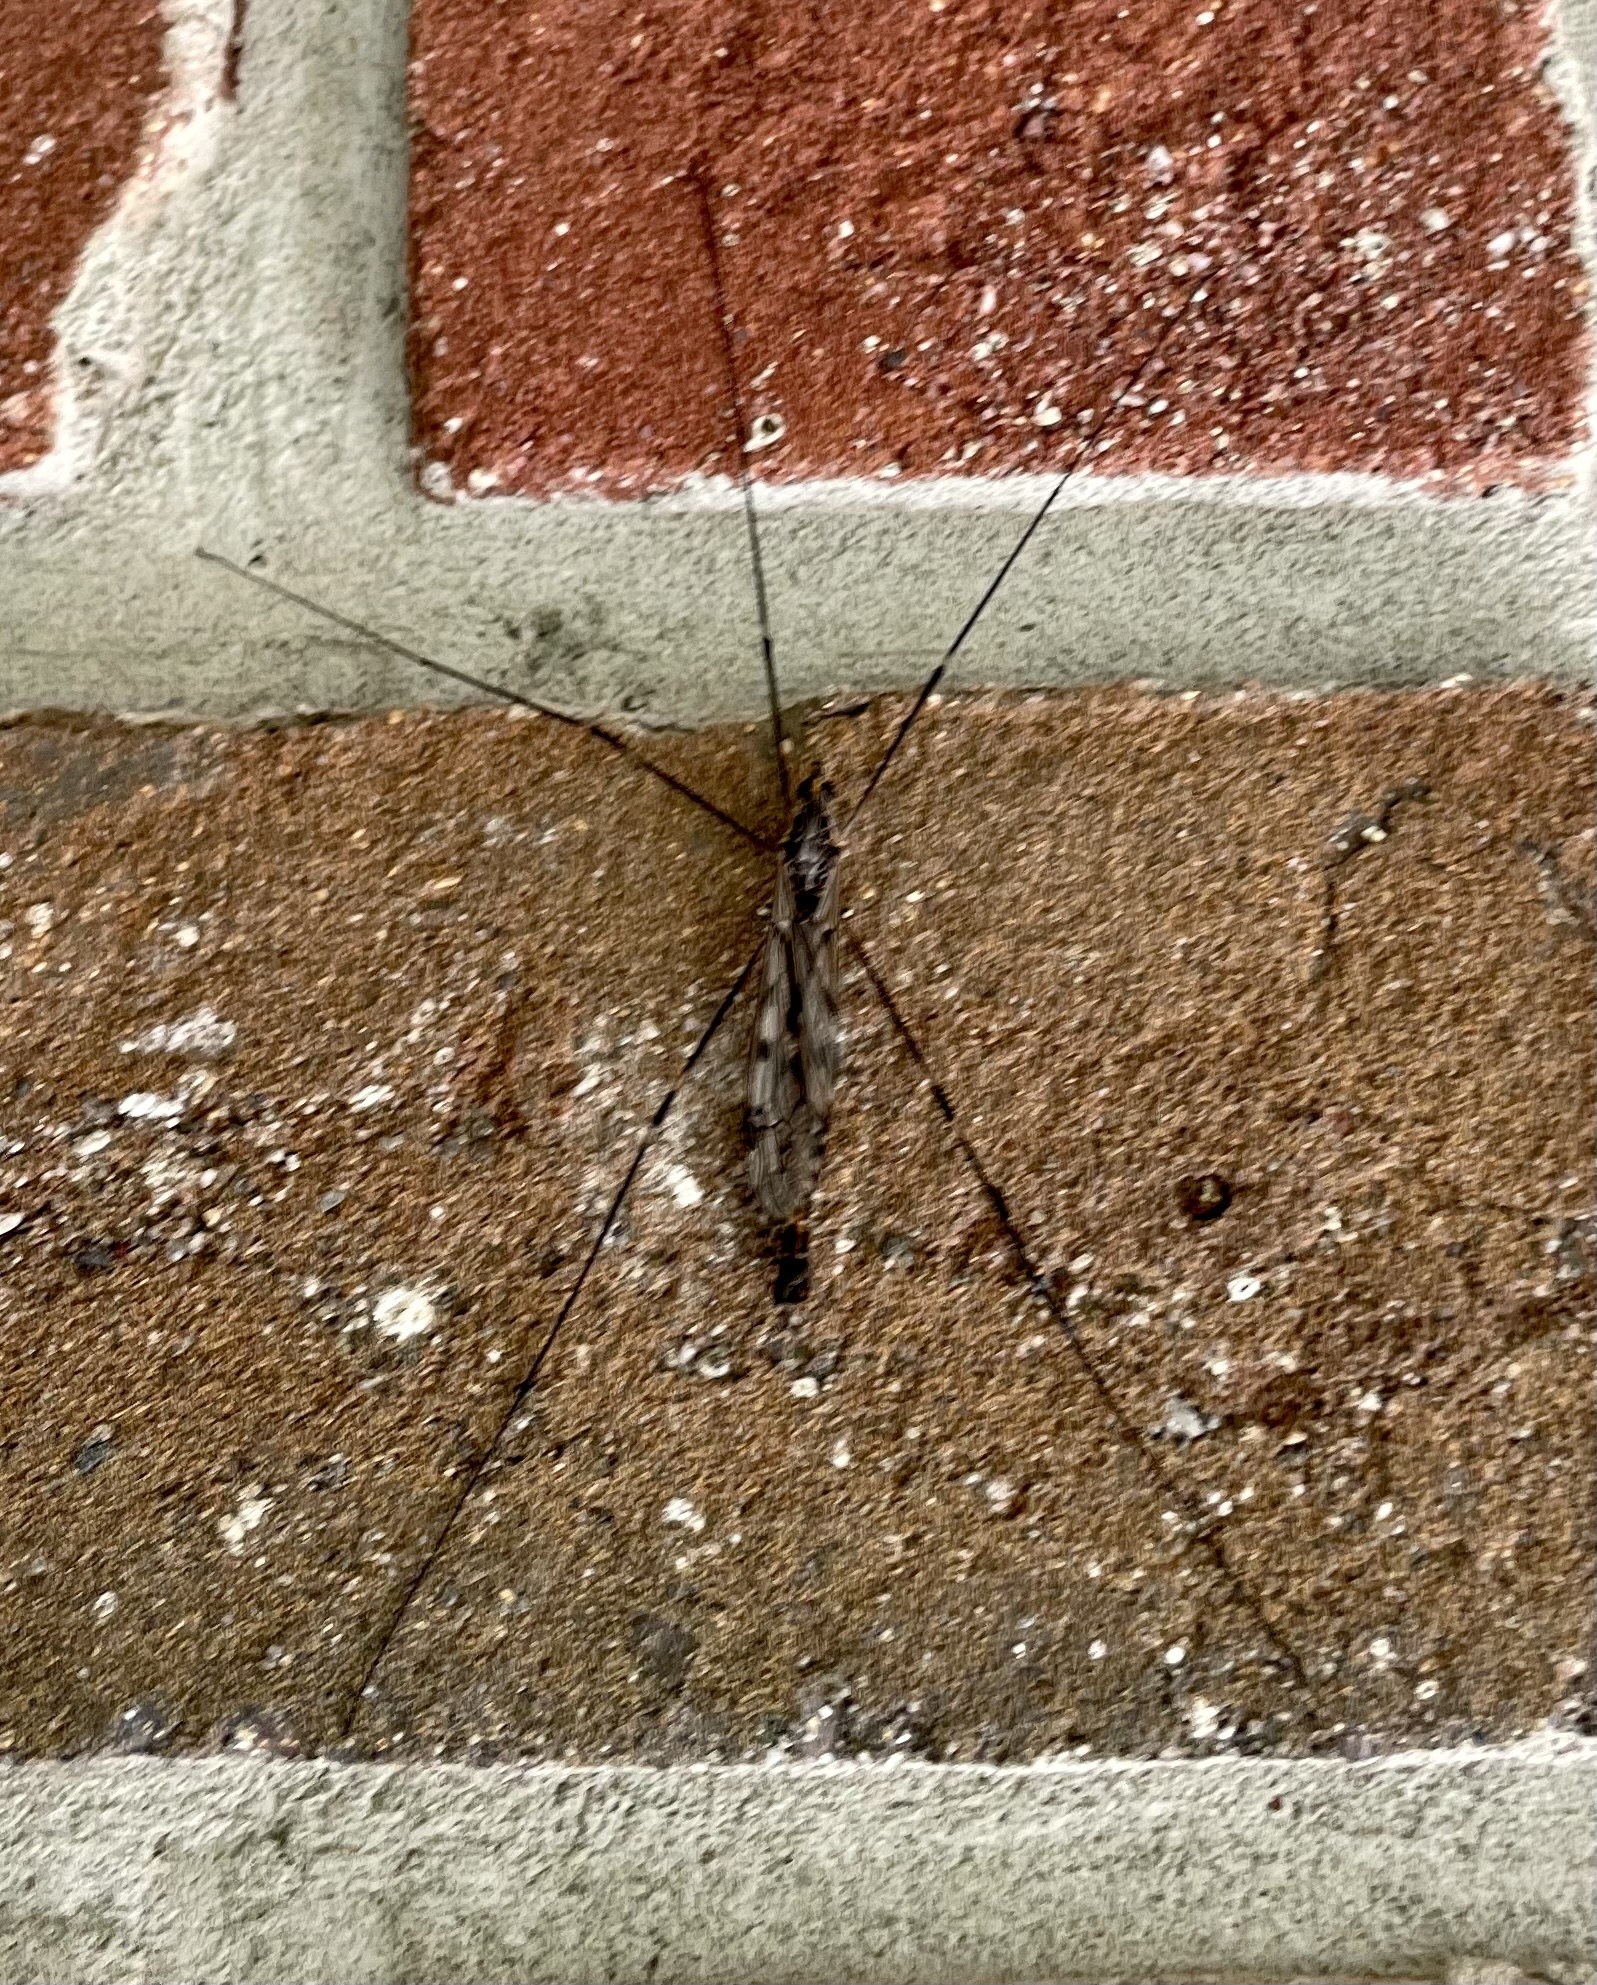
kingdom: Animalia
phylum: Arthropoda
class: Insecta
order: Diptera
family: Tipulidae
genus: Tipula
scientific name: Tipula abdominalis
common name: Giant crane fly
